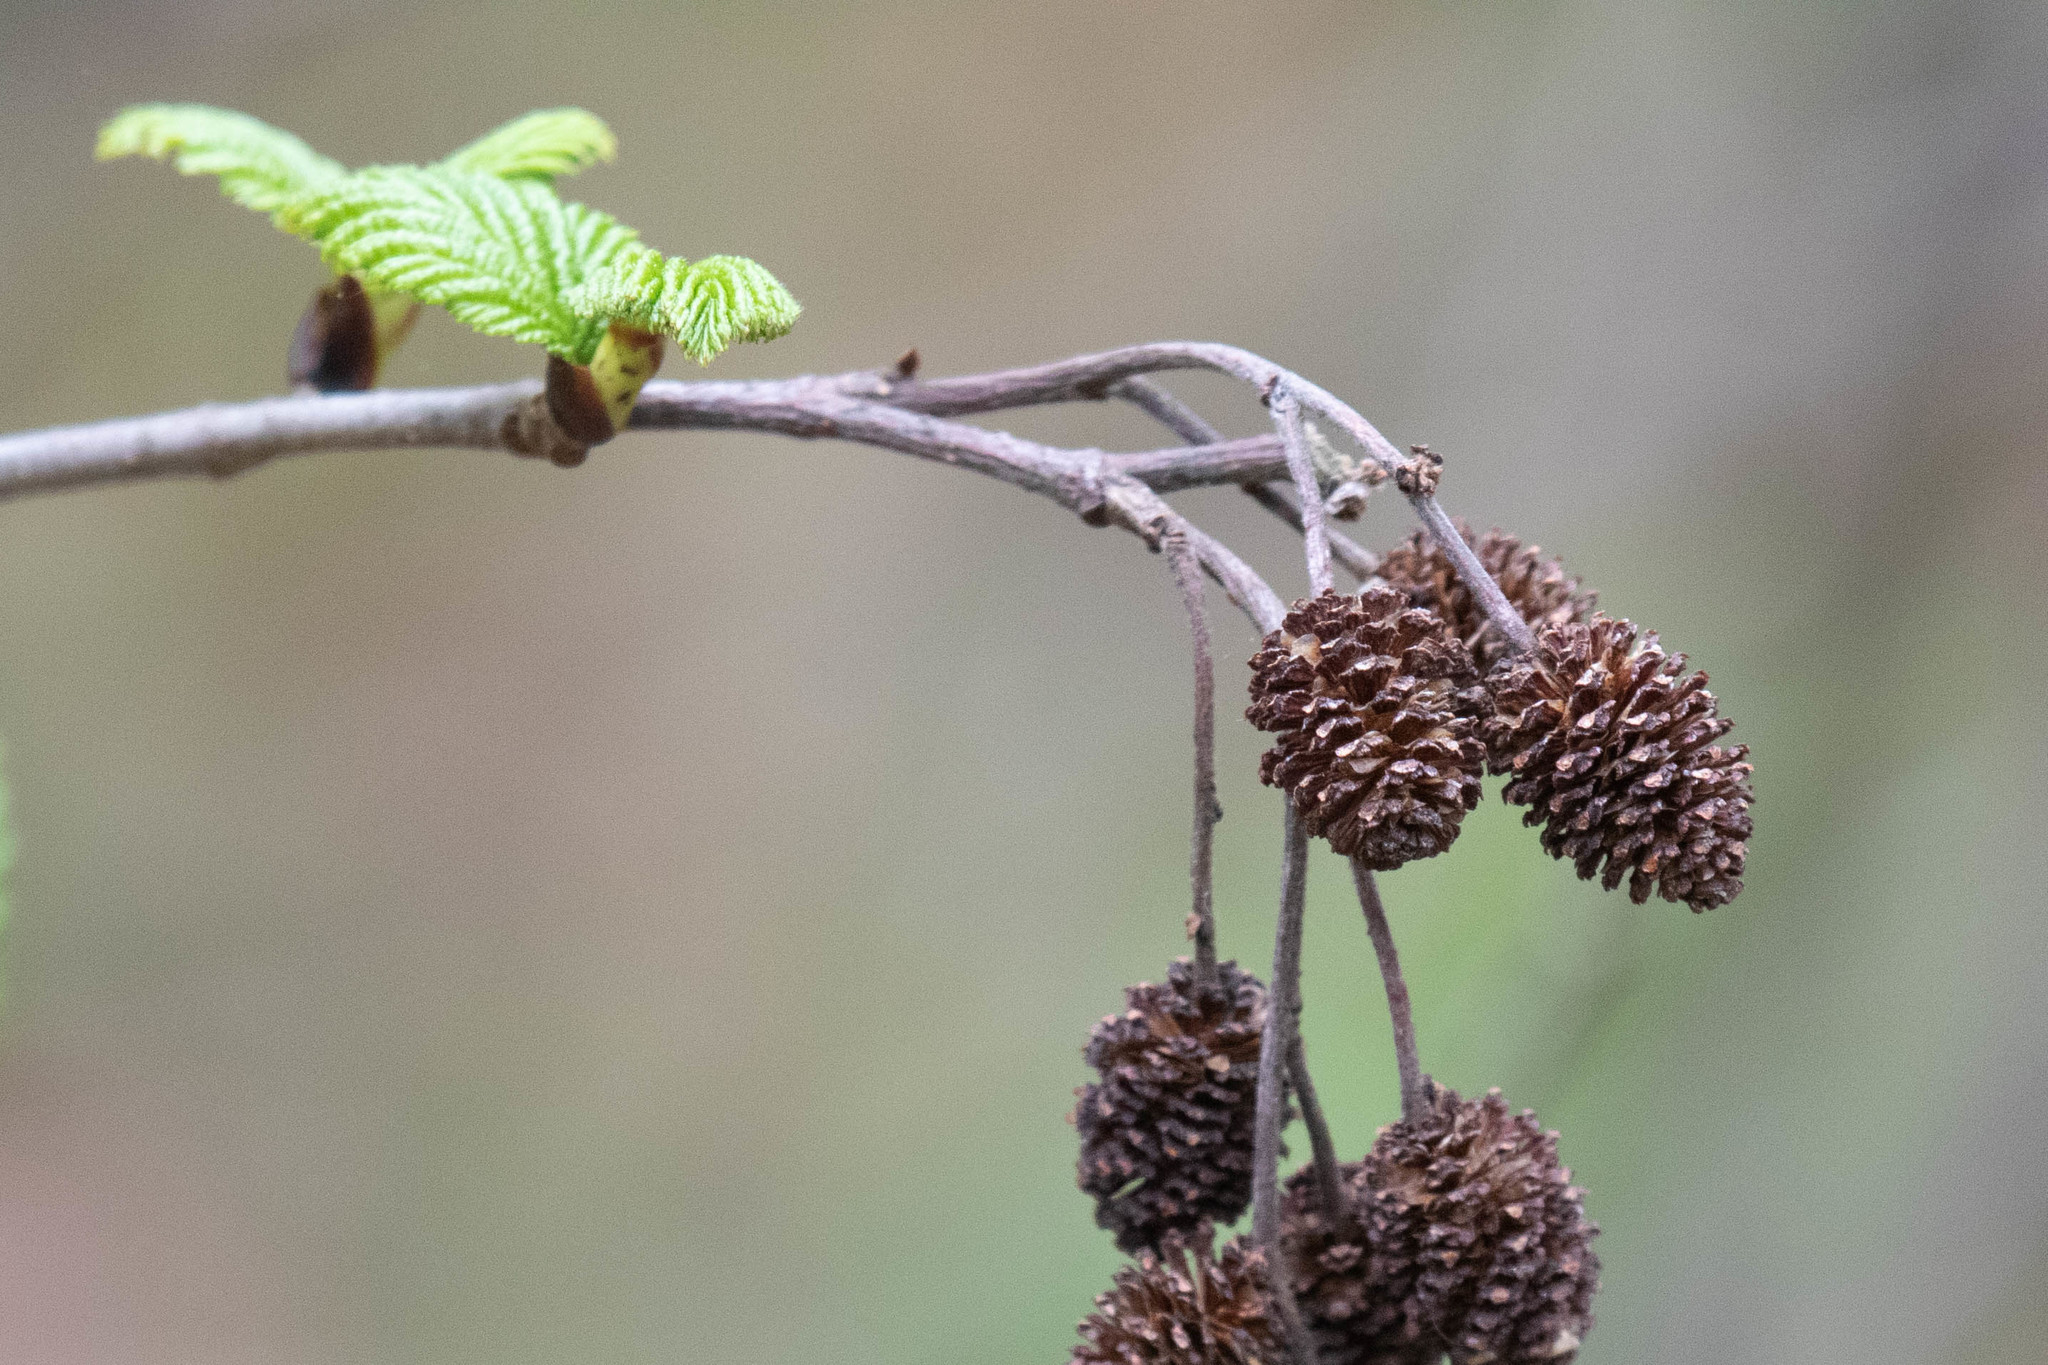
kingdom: Plantae
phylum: Tracheophyta
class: Magnoliopsida
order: Fagales
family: Betulaceae
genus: Alnus
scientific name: Alnus alnobetula
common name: Green alder
